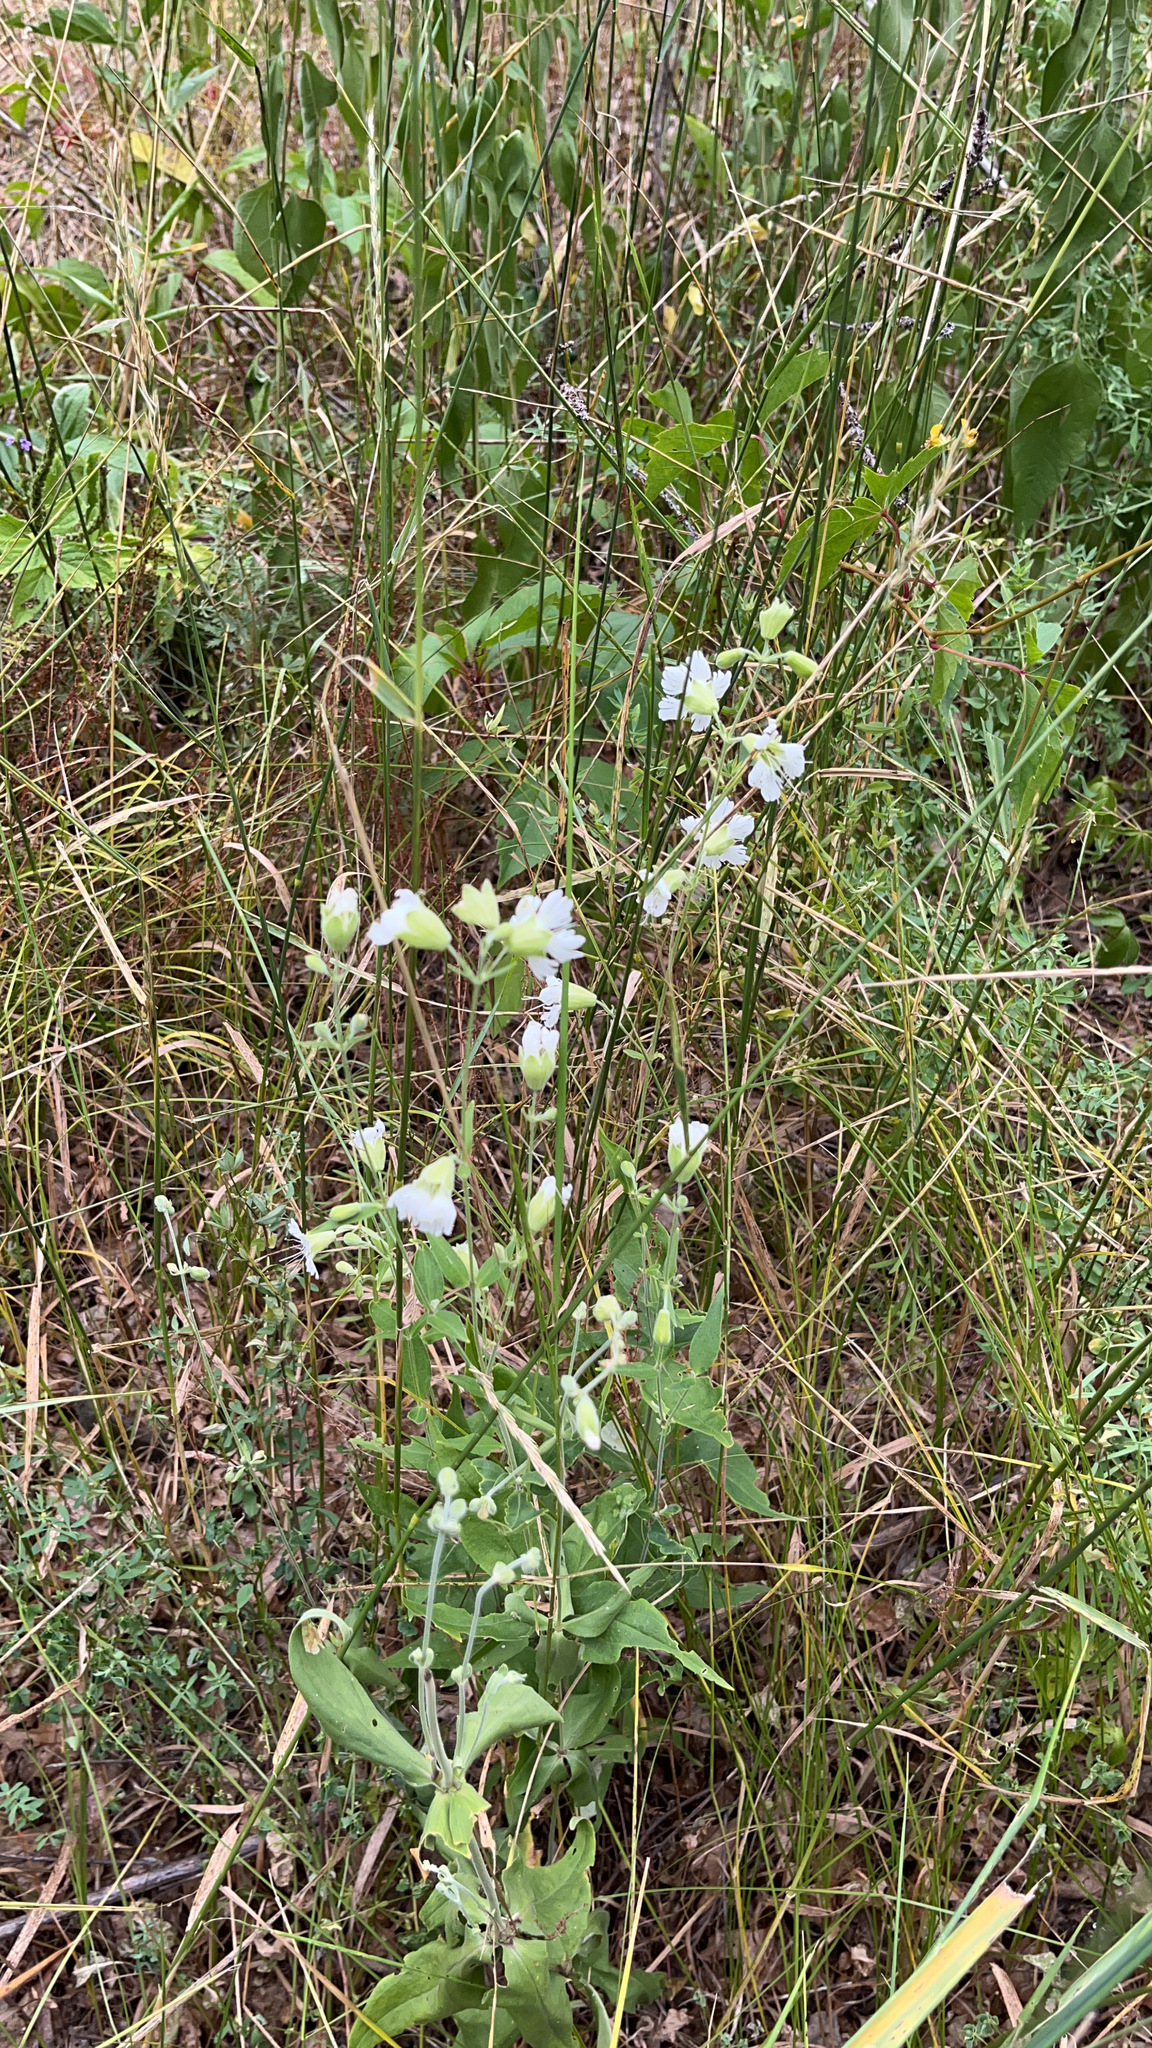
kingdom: Plantae
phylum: Tracheophyta
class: Magnoliopsida
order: Caryophyllales
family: Caryophyllaceae
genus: Silene
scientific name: Silene stellata
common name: Starry campion
